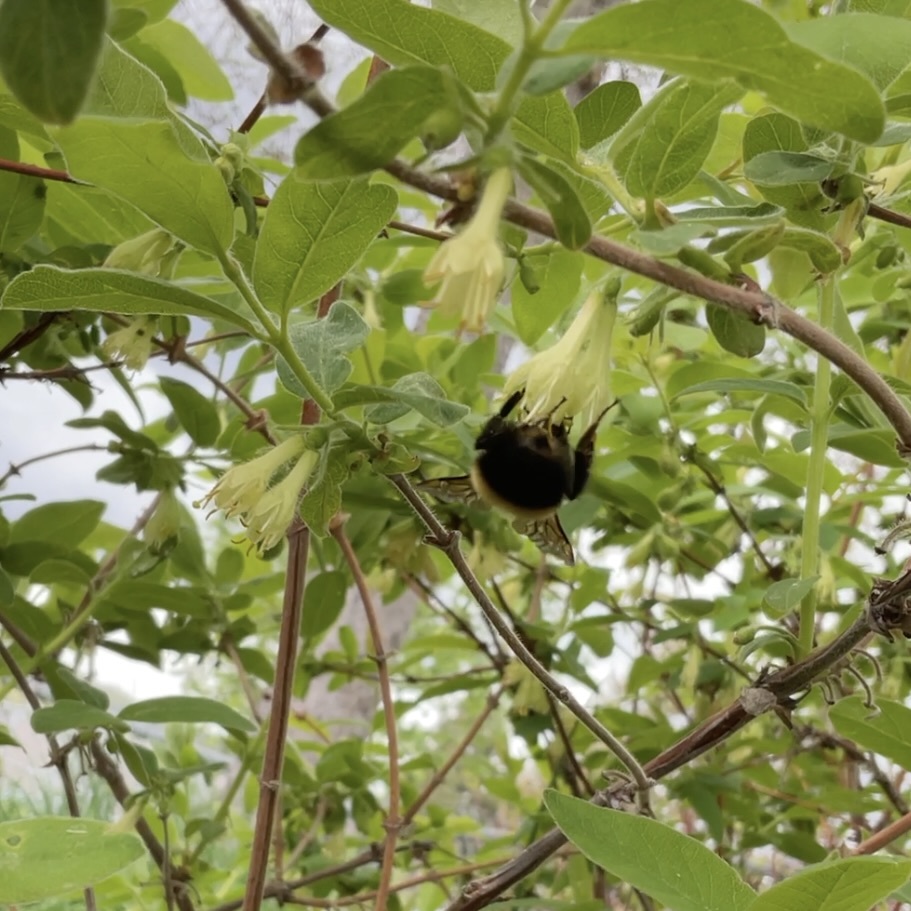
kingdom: Animalia
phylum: Arthropoda
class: Insecta
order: Hymenoptera
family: Apidae
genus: Bombus
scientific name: Bombus perplexus
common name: Confusing bumble bee
